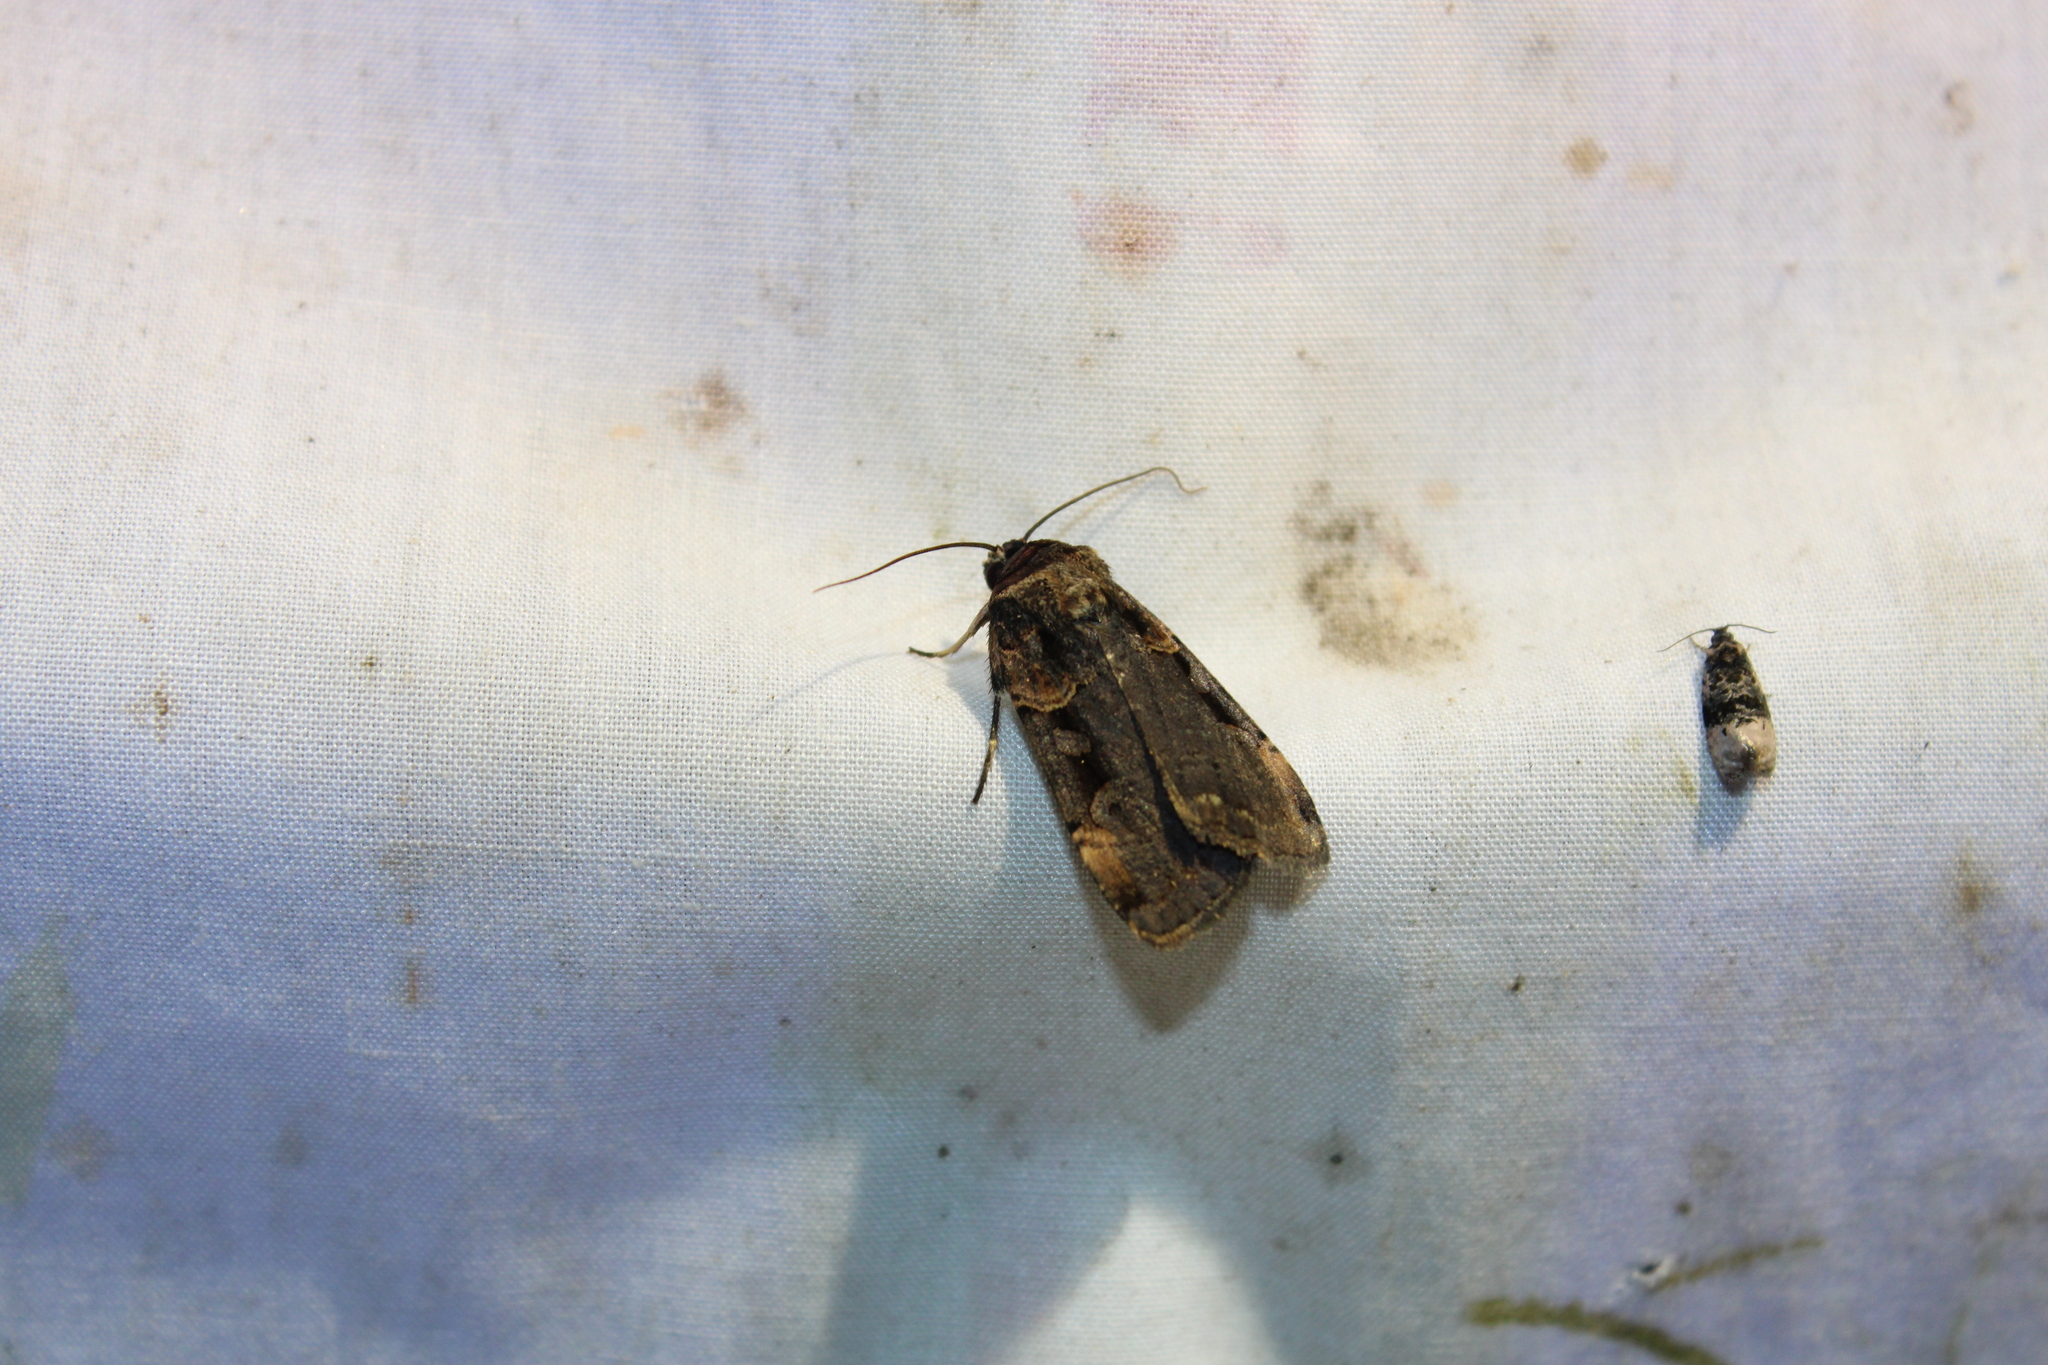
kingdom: Animalia
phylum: Arthropoda
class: Insecta
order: Lepidoptera
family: Noctuidae
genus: Pseudohermonassa
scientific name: Pseudohermonassa bicarnea
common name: Pink spotted dart
